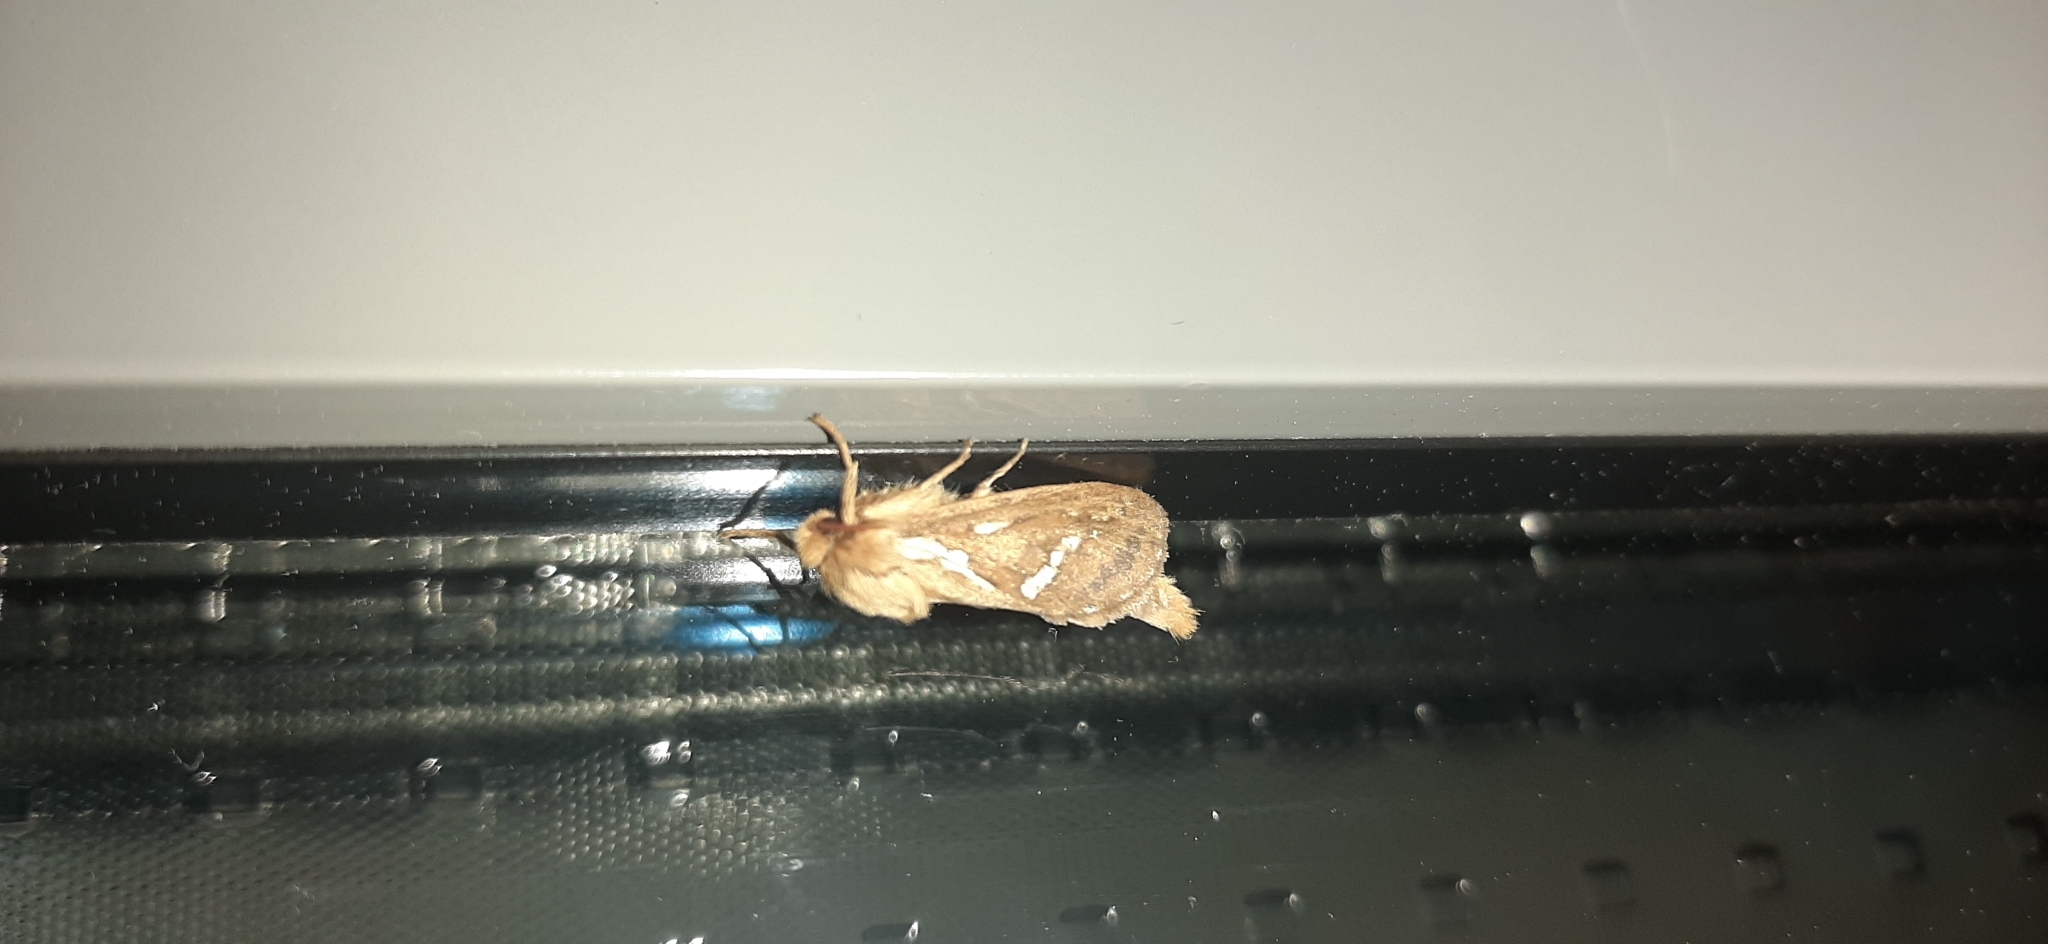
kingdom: Animalia
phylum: Arthropoda
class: Insecta
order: Lepidoptera
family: Hepialidae
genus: Korscheltellus
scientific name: Korscheltellus lupulina
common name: Common swift
